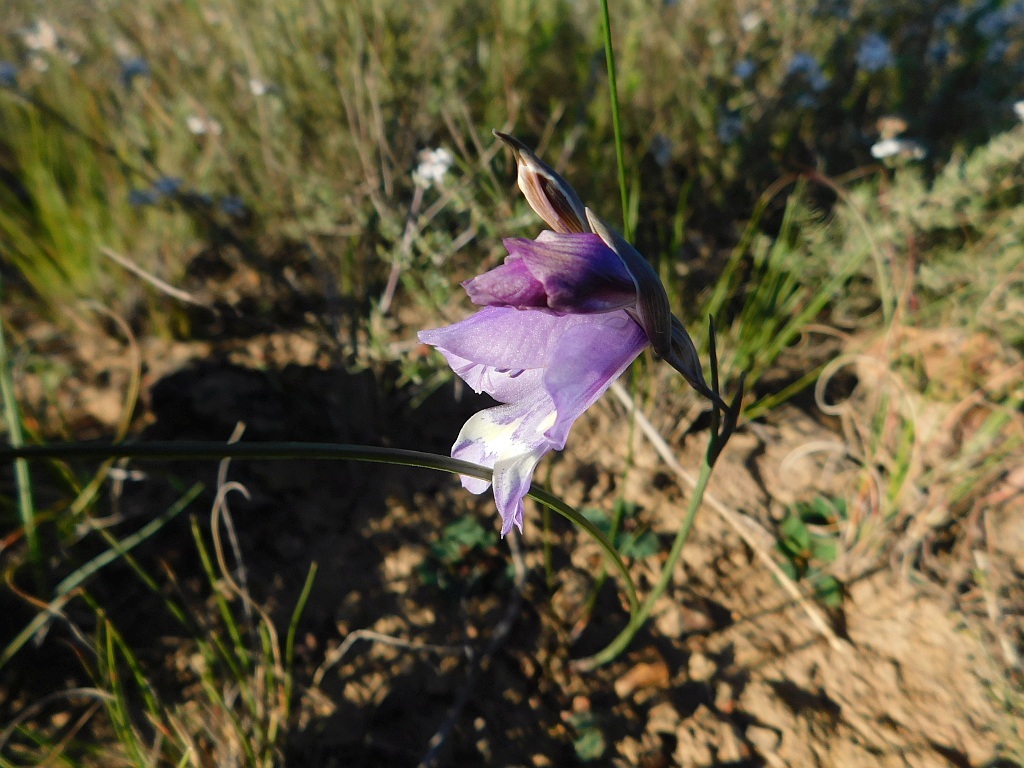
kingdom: Plantae
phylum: Tracheophyta
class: Liliopsida
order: Asparagales
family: Iridaceae
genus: Gladiolus
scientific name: Gladiolus rogersii
